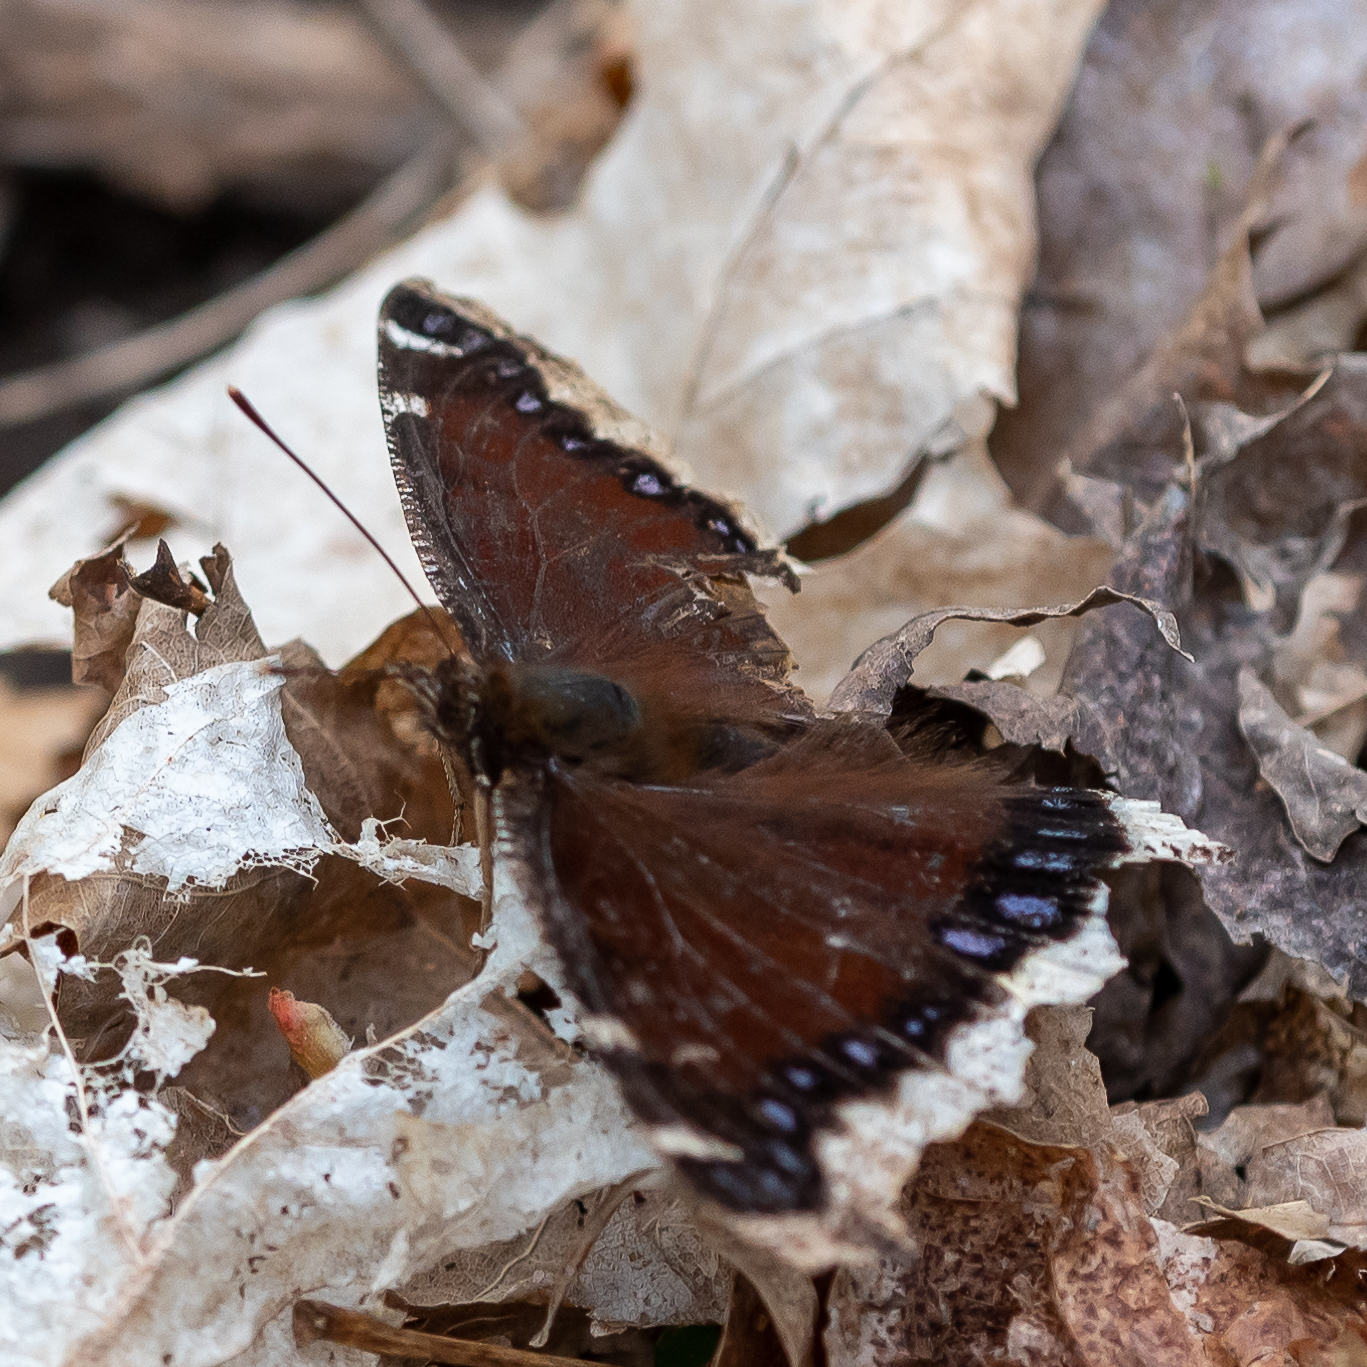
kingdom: Animalia
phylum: Arthropoda
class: Insecta
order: Lepidoptera
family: Nymphalidae
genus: Nymphalis
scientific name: Nymphalis antiopa
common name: Camberwell beauty
